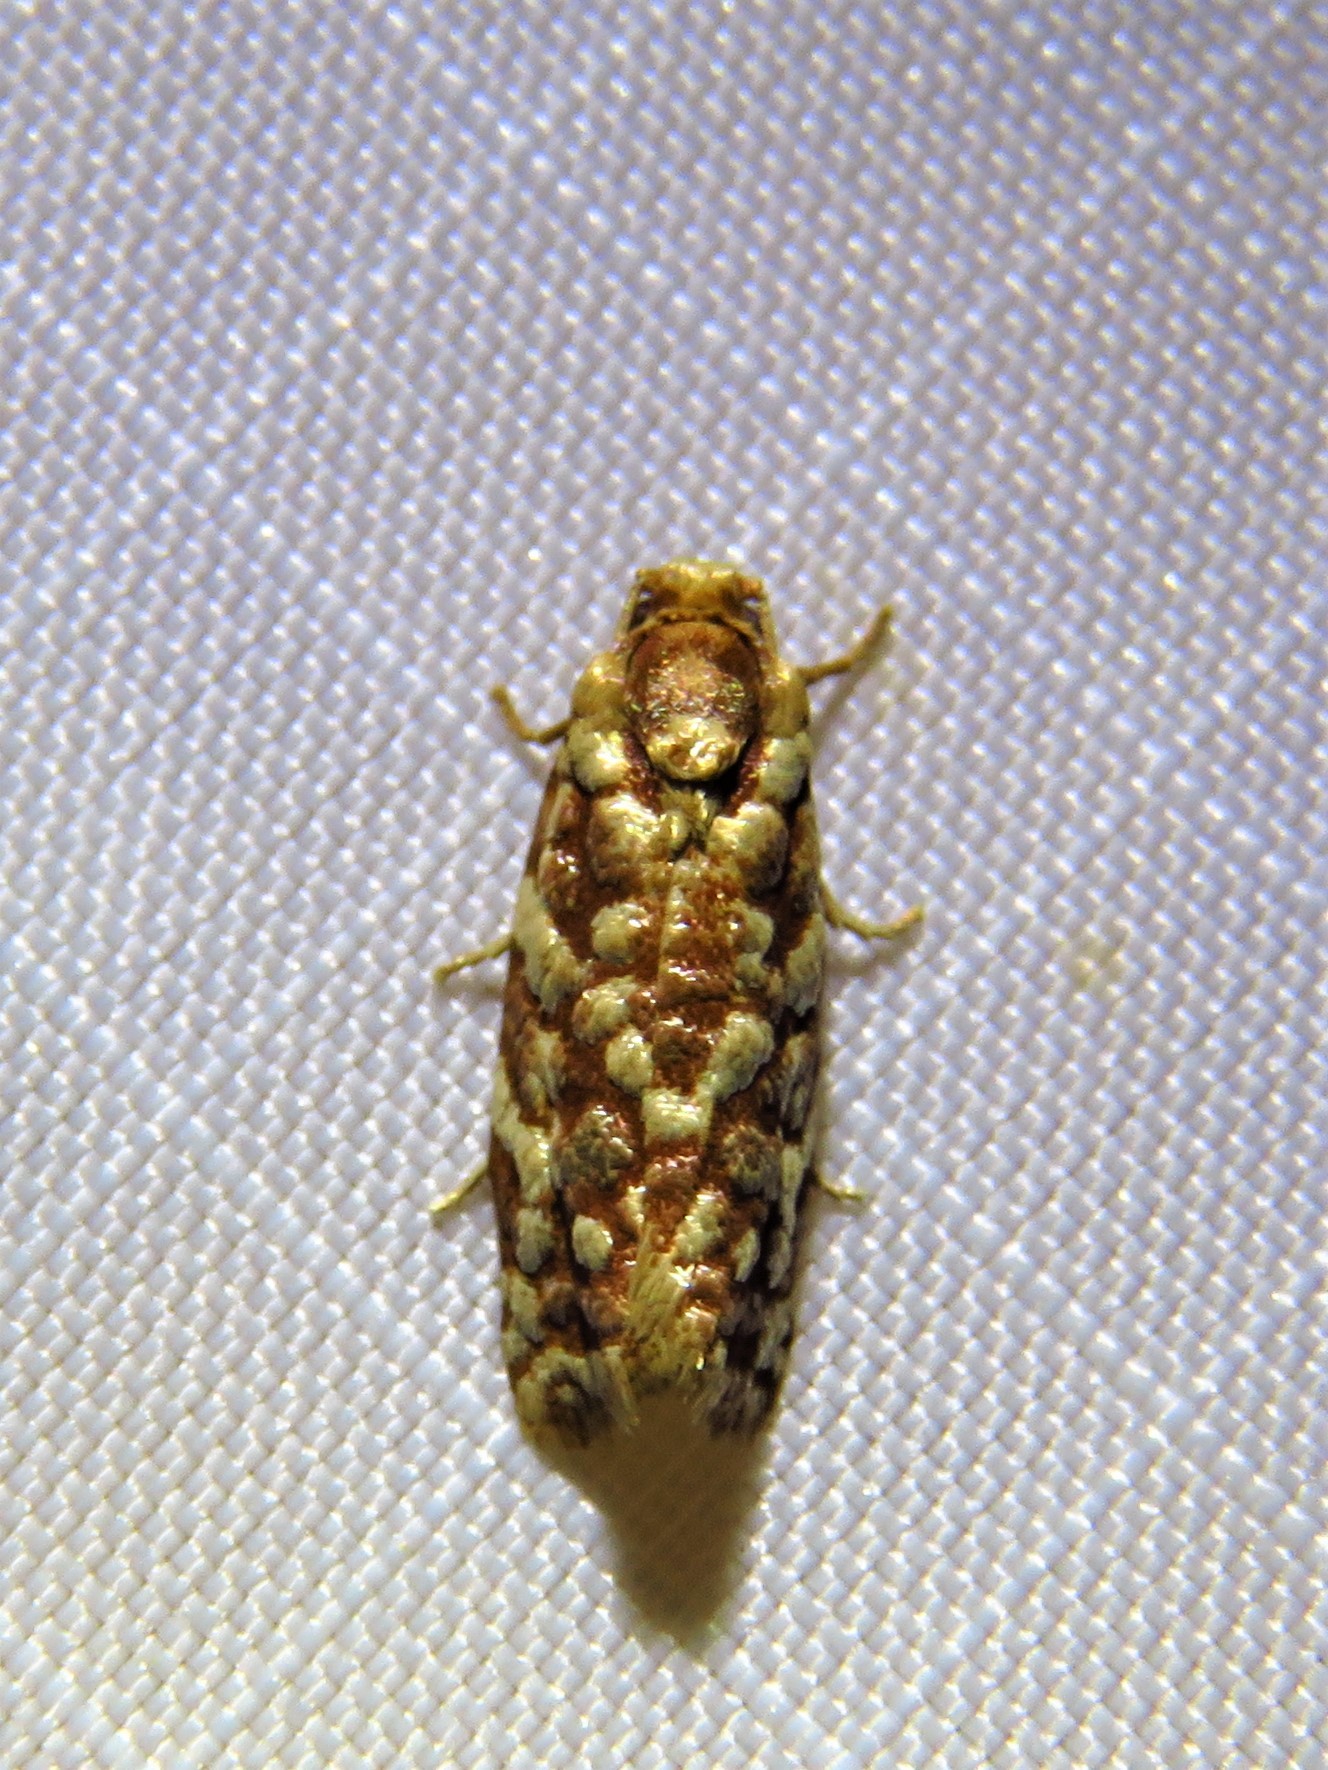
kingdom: Animalia
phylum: Arthropoda
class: Insecta
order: Lepidoptera
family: Tortricidae
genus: Choristoneura
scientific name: Choristoneura houstonana
